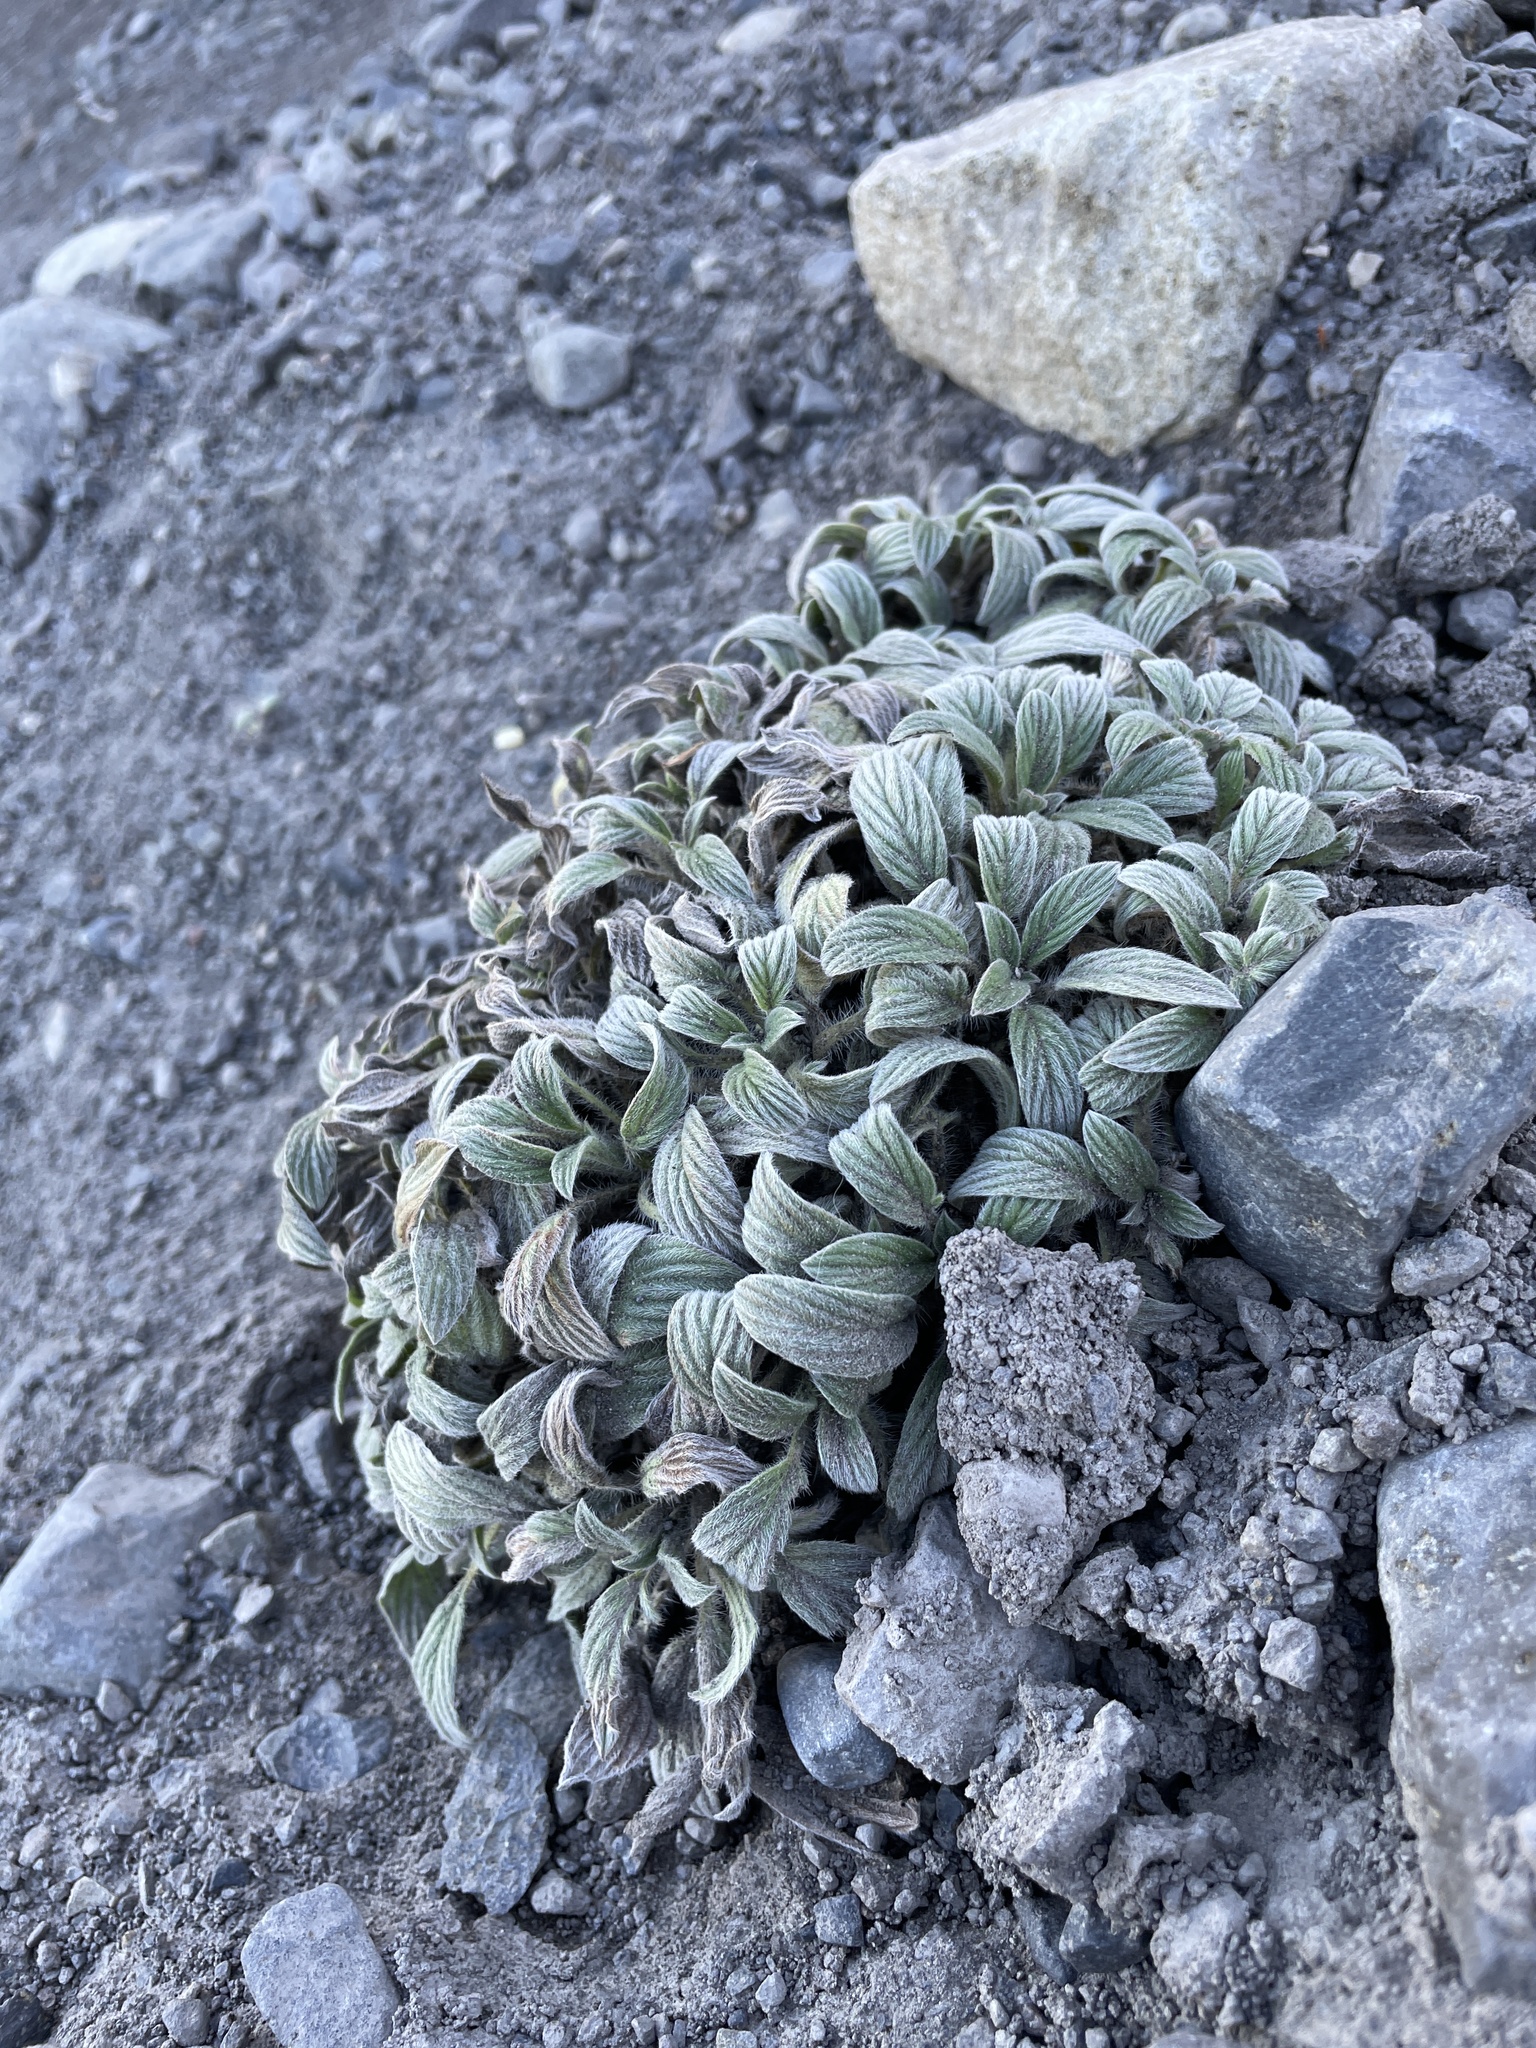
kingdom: Plantae
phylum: Tracheophyta
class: Magnoliopsida
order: Boraginales
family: Hydrophyllaceae
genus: Phacelia
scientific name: Phacelia hastata
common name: Silver-leaved phacelia
